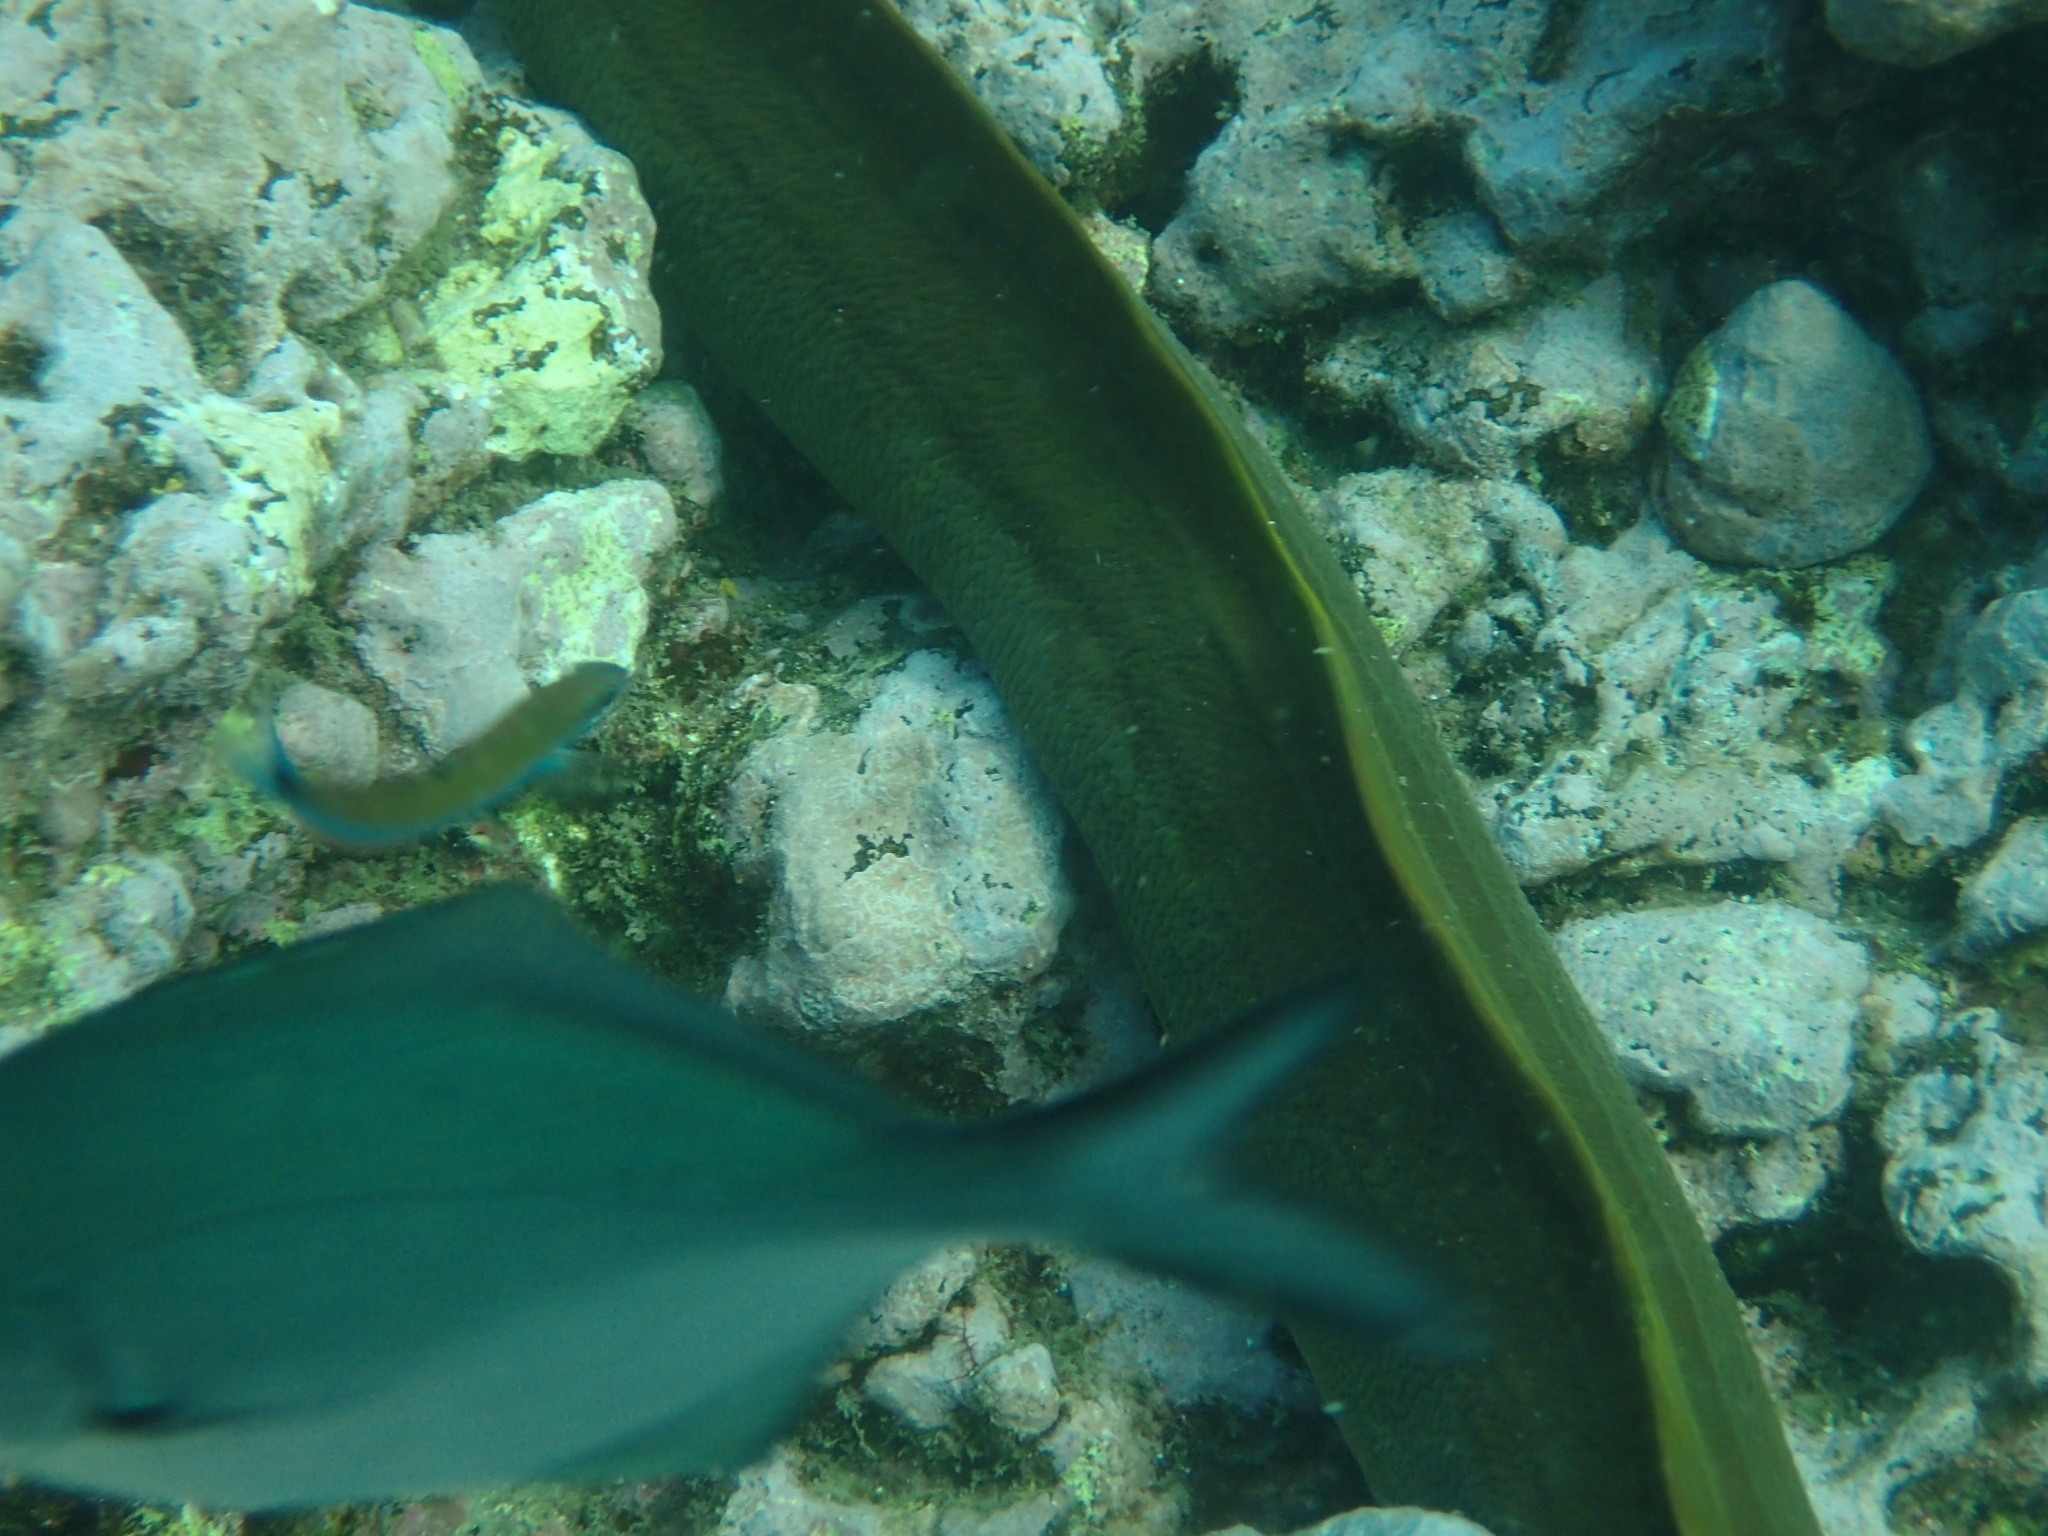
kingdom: Animalia
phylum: Chordata
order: Perciformes
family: Kyphosidae
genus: Scorpis
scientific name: Scorpis lineolata
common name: Sweep
